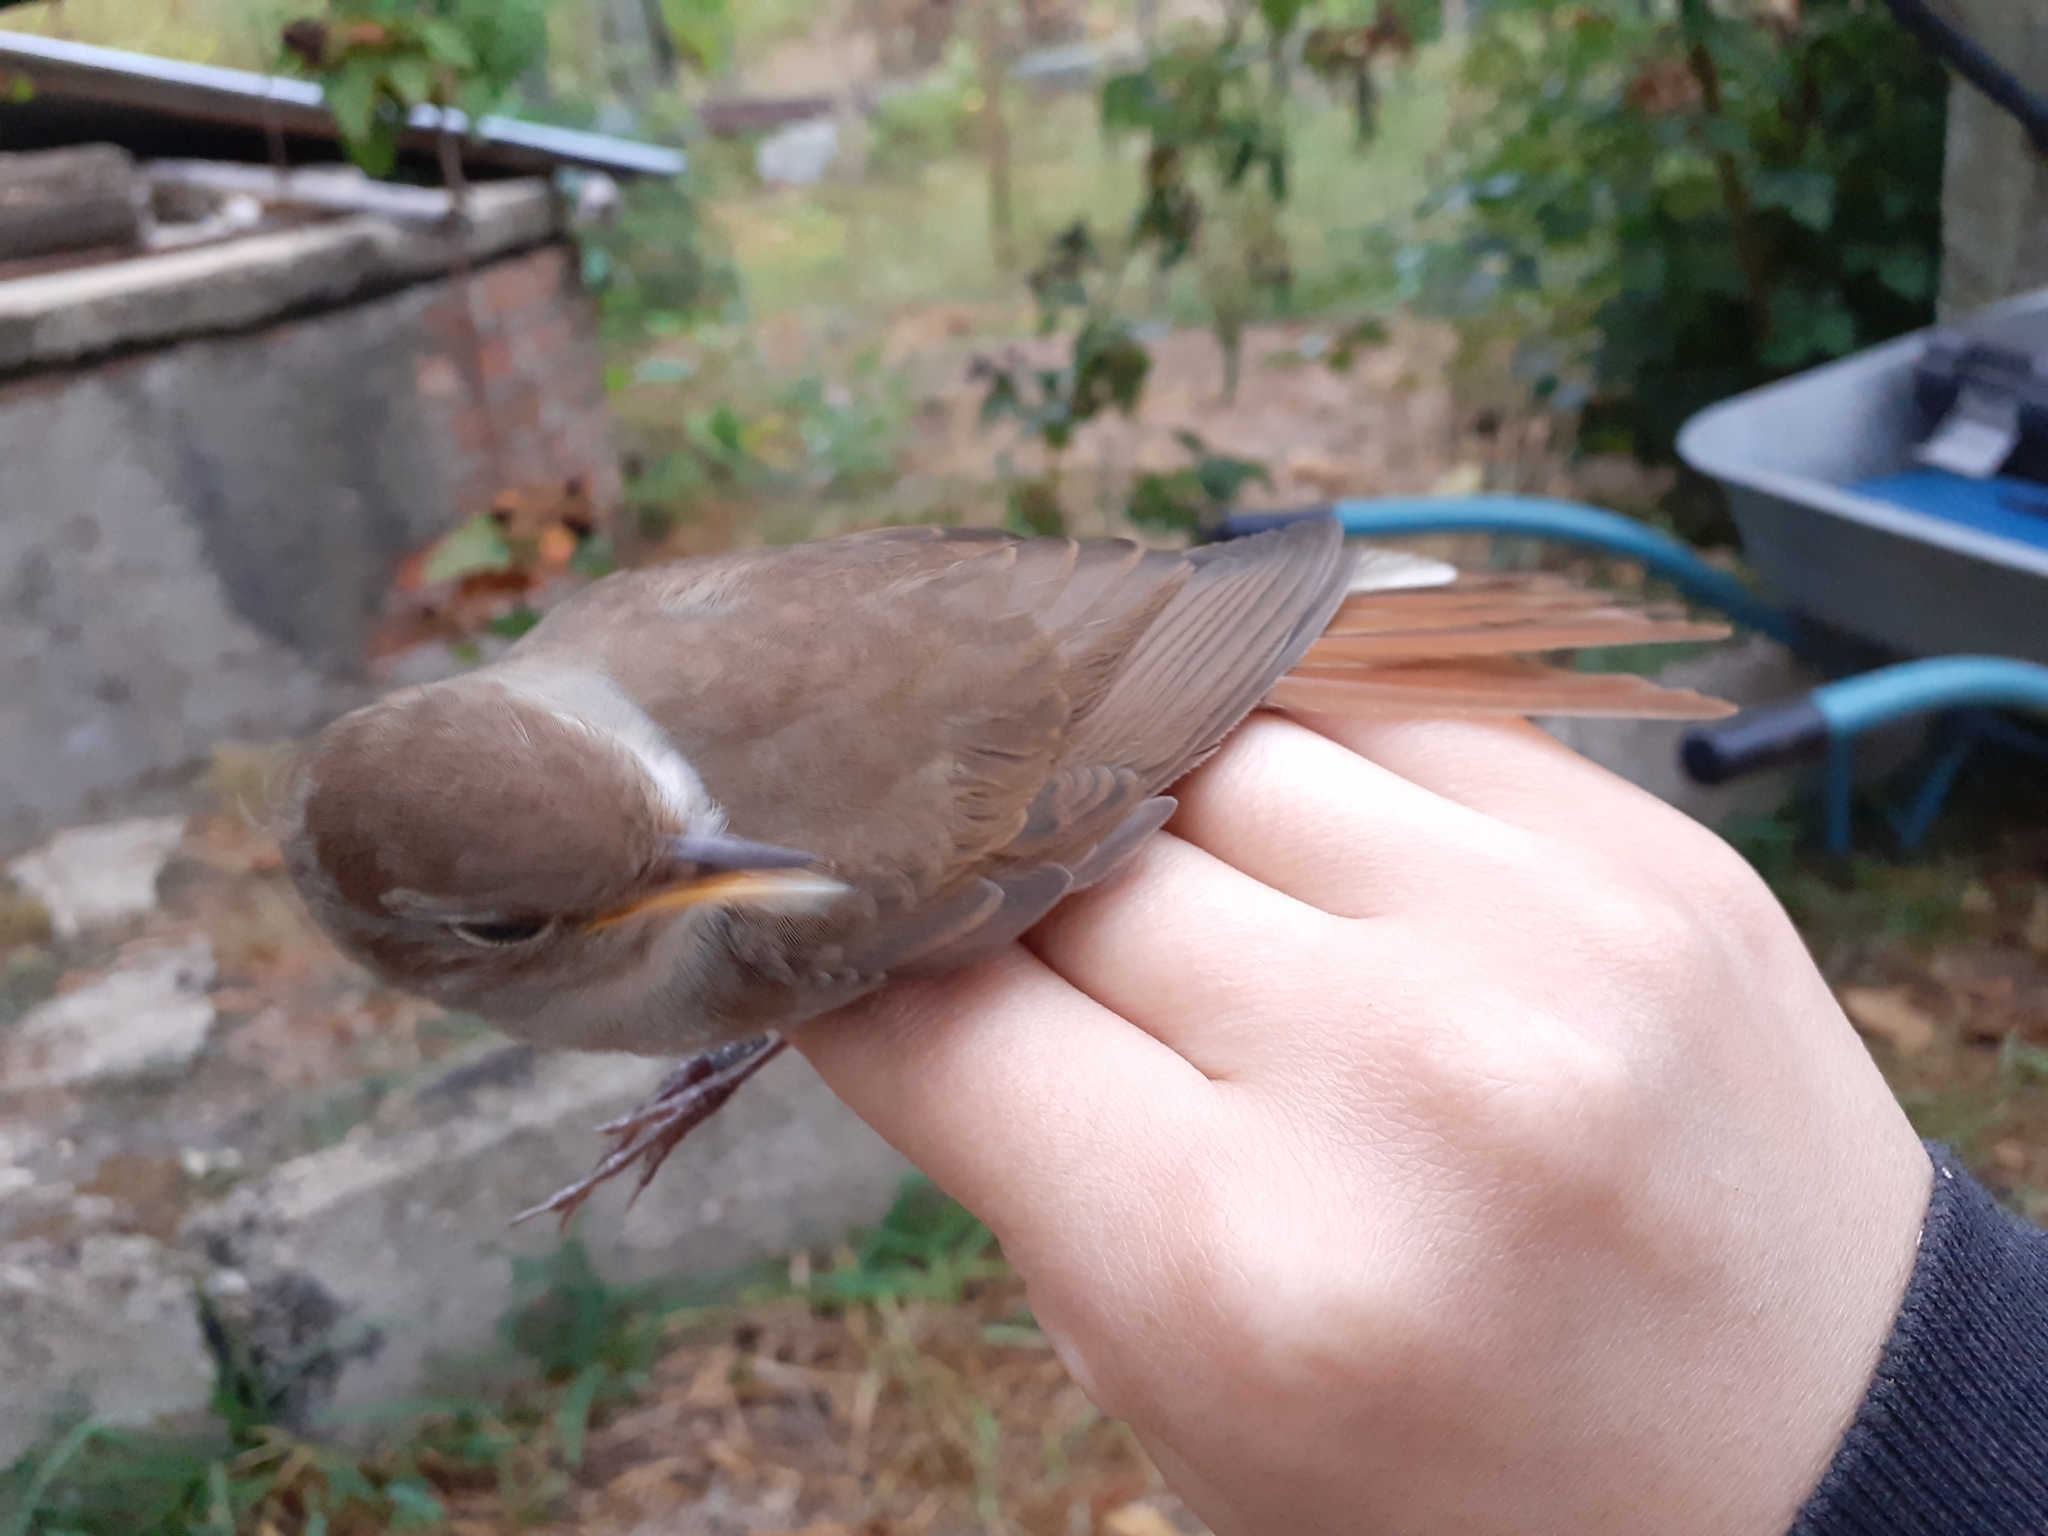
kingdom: Animalia
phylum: Chordata
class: Aves
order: Passeriformes
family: Muscicapidae
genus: Luscinia
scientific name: Luscinia megarhynchos
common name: Common nightingale
